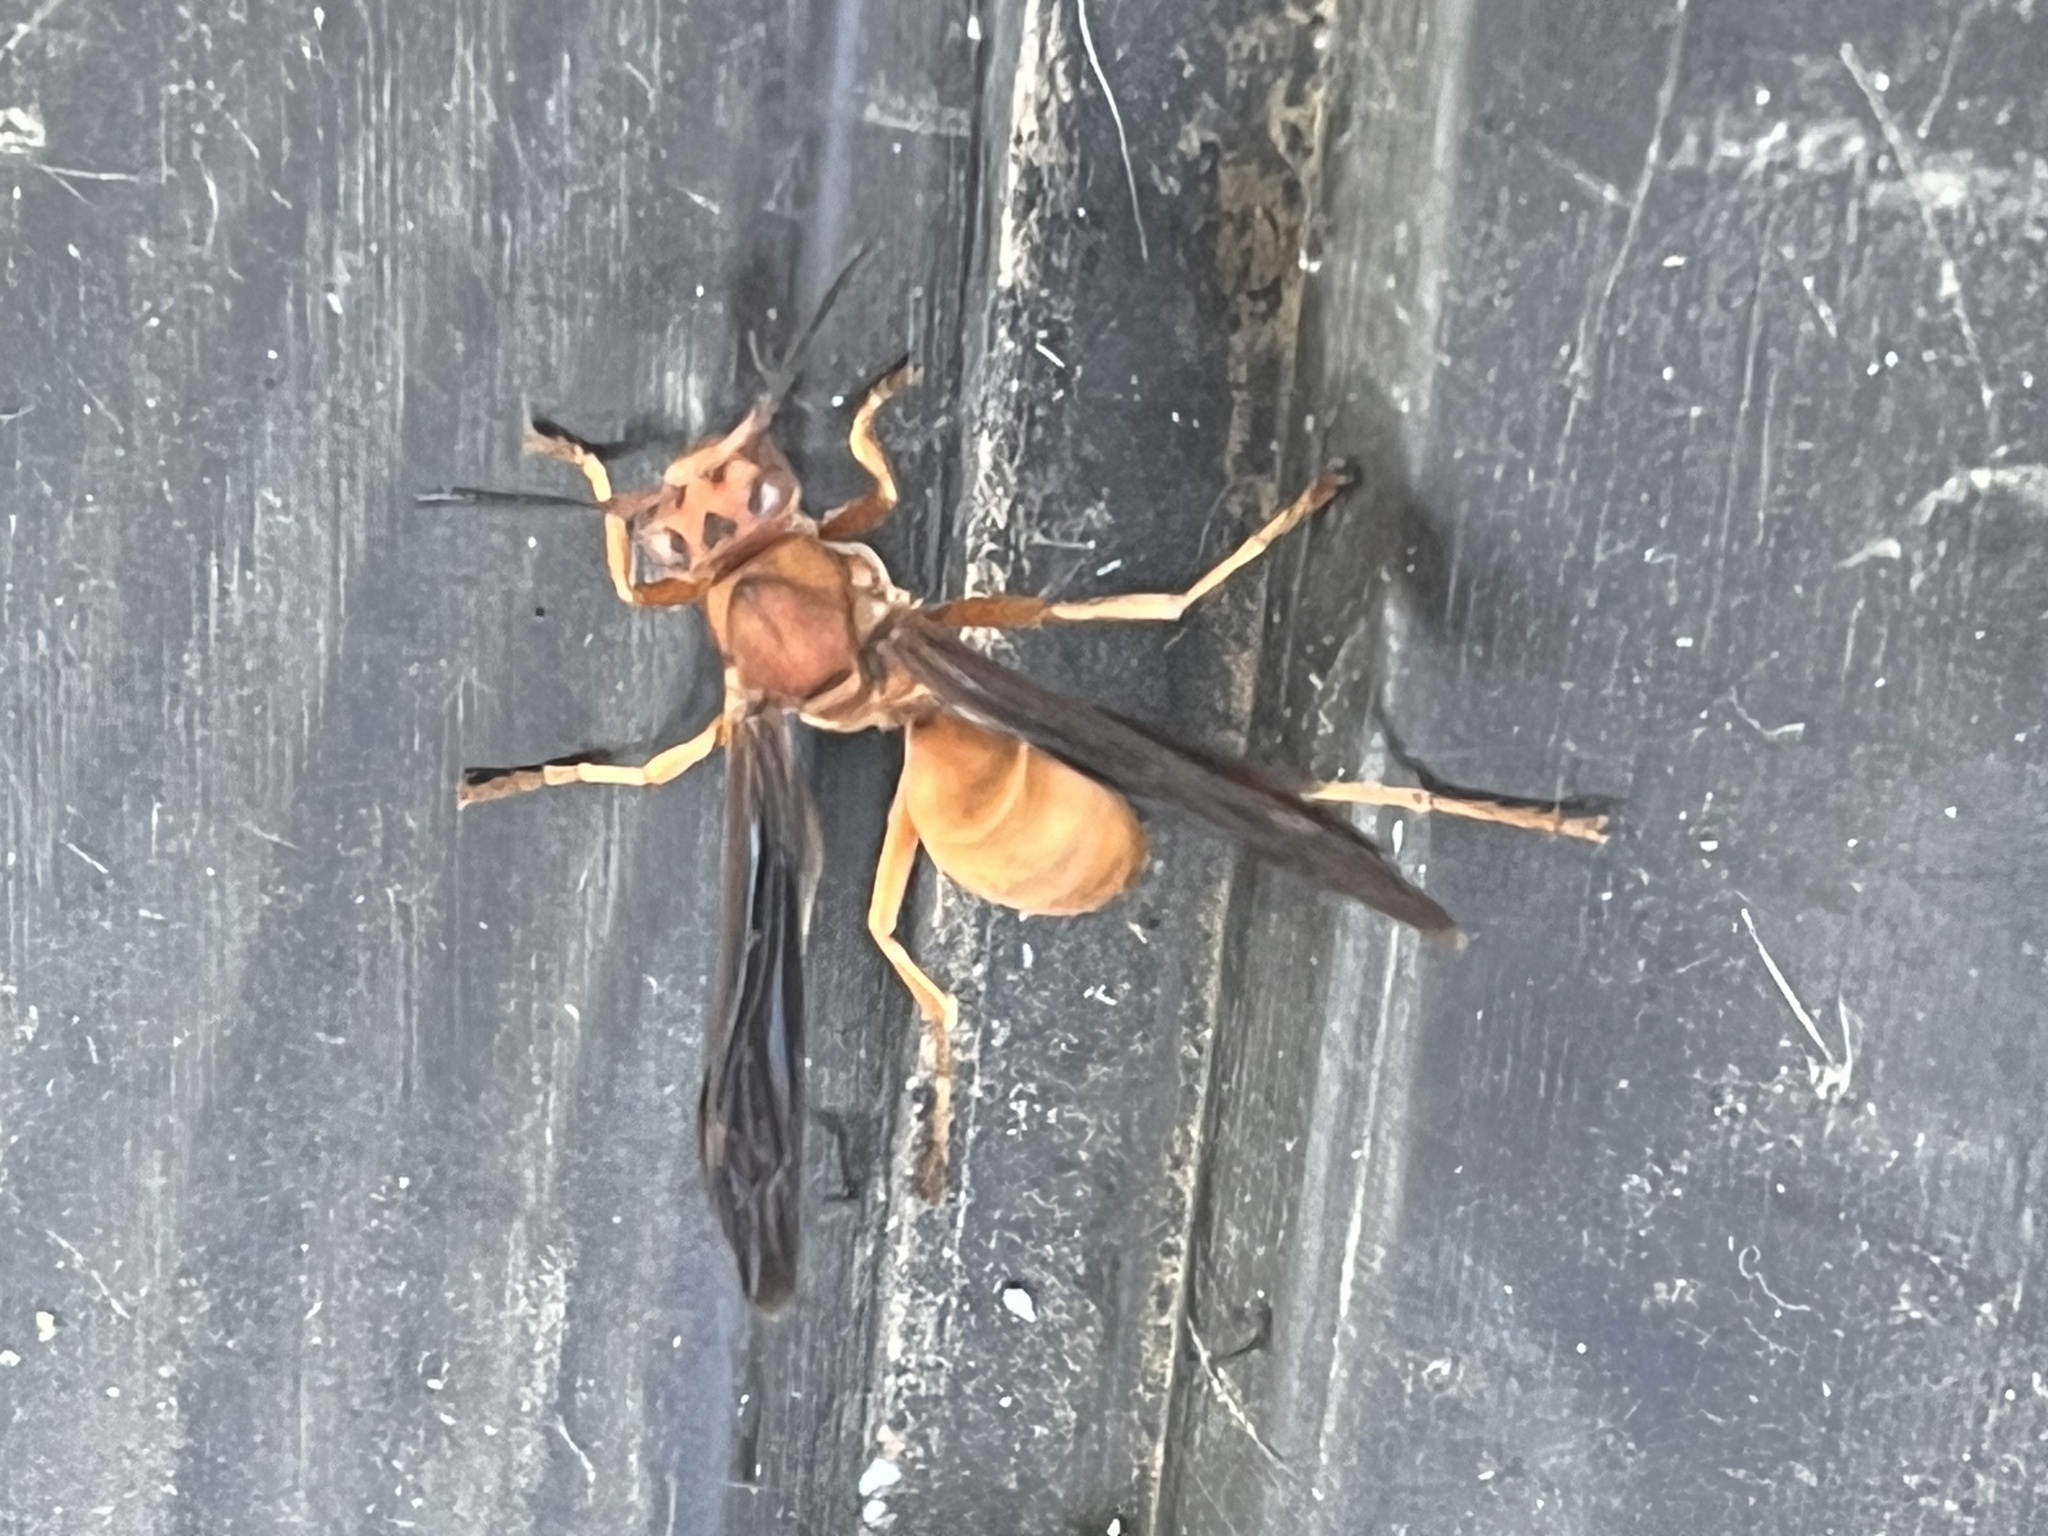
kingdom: Animalia
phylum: Arthropoda
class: Insecta
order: Hymenoptera
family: Eumenidae
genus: Polistes
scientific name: Polistes carolina
